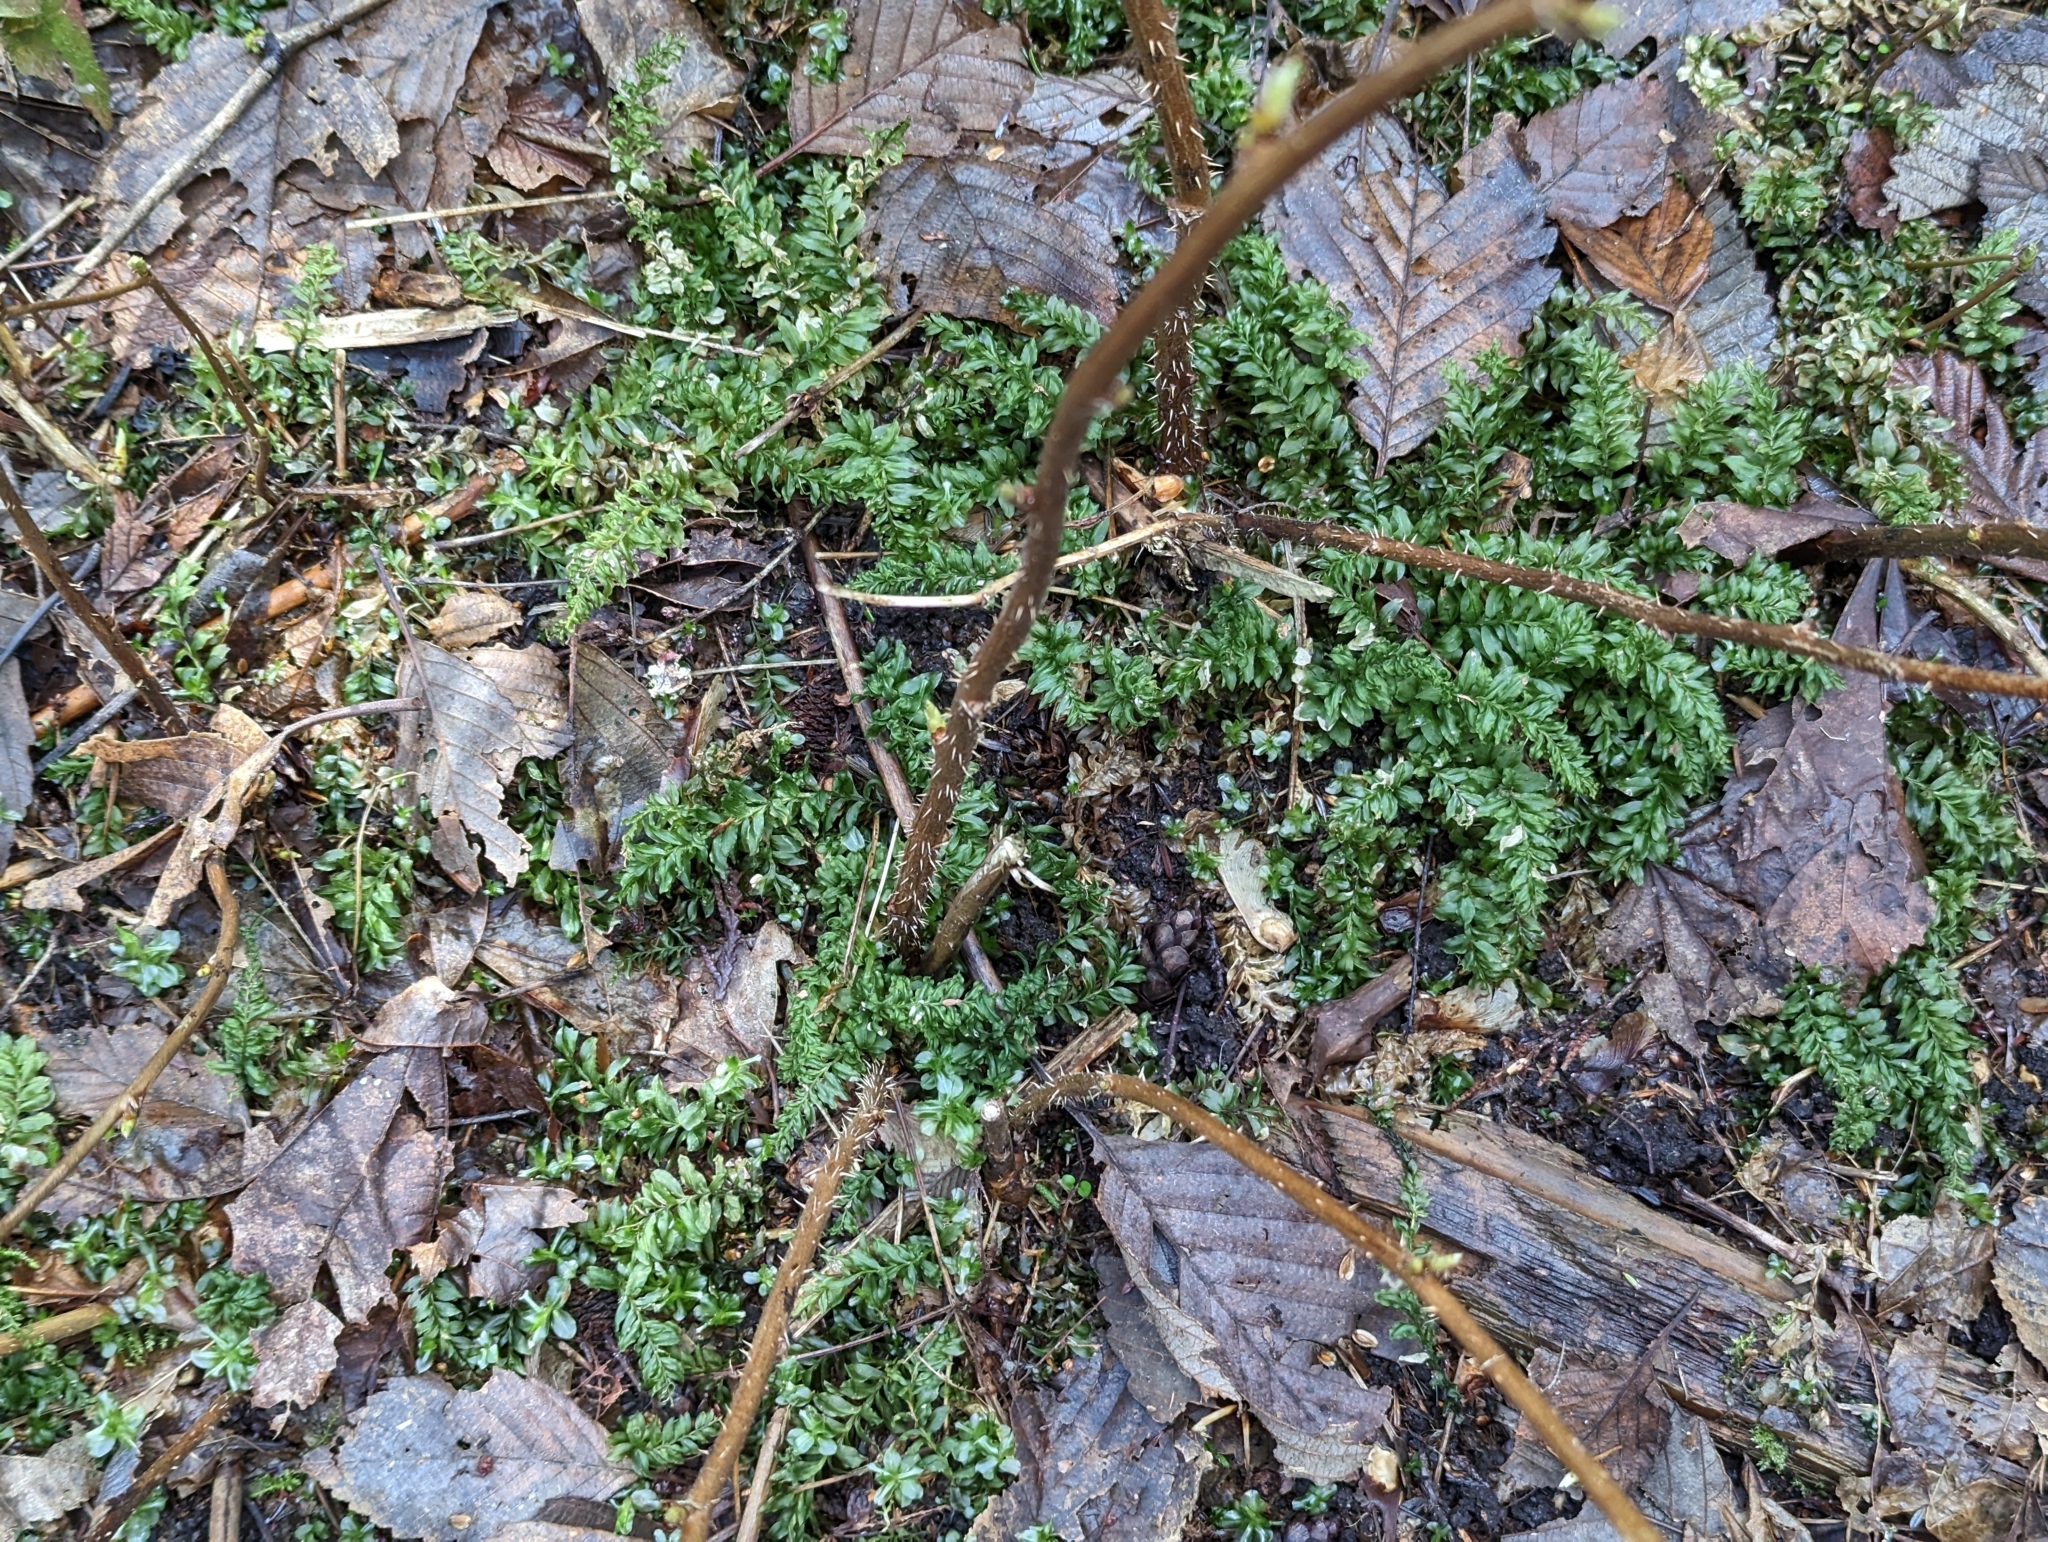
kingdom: Plantae
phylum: Bryophyta
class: Bryopsida
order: Bryales
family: Mniaceae
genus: Plagiomnium
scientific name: Plagiomnium insigne
